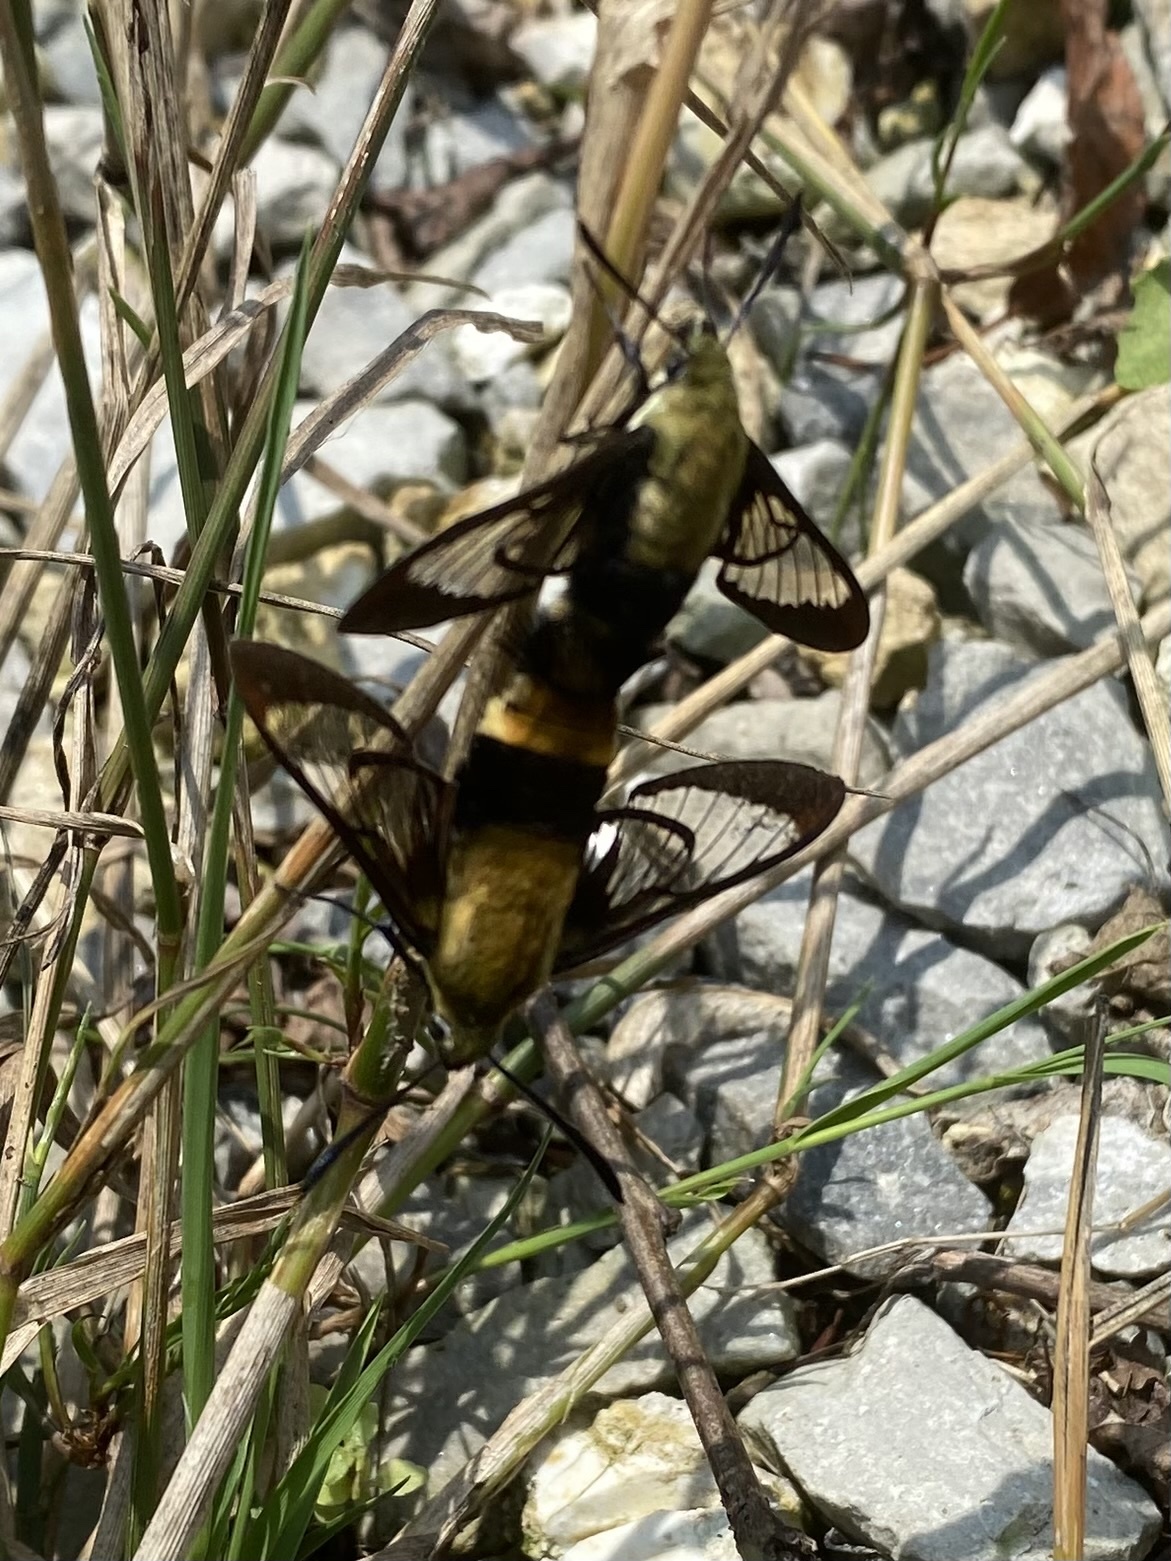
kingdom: Animalia
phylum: Arthropoda
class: Insecta
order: Lepidoptera
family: Sphingidae
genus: Hemaris
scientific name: Hemaris diffinis
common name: Bumblebee moth
